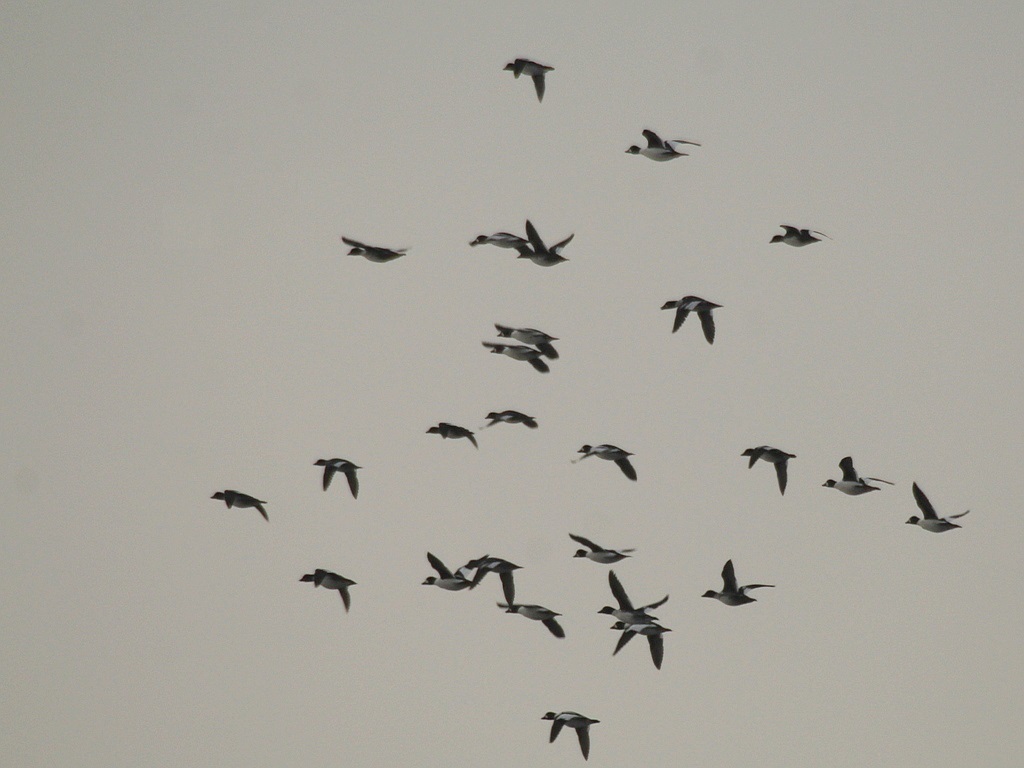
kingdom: Animalia
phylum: Chordata
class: Aves
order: Anseriformes
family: Anatidae
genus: Bucephala
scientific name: Bucephala clangula
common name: Common goldeneye
